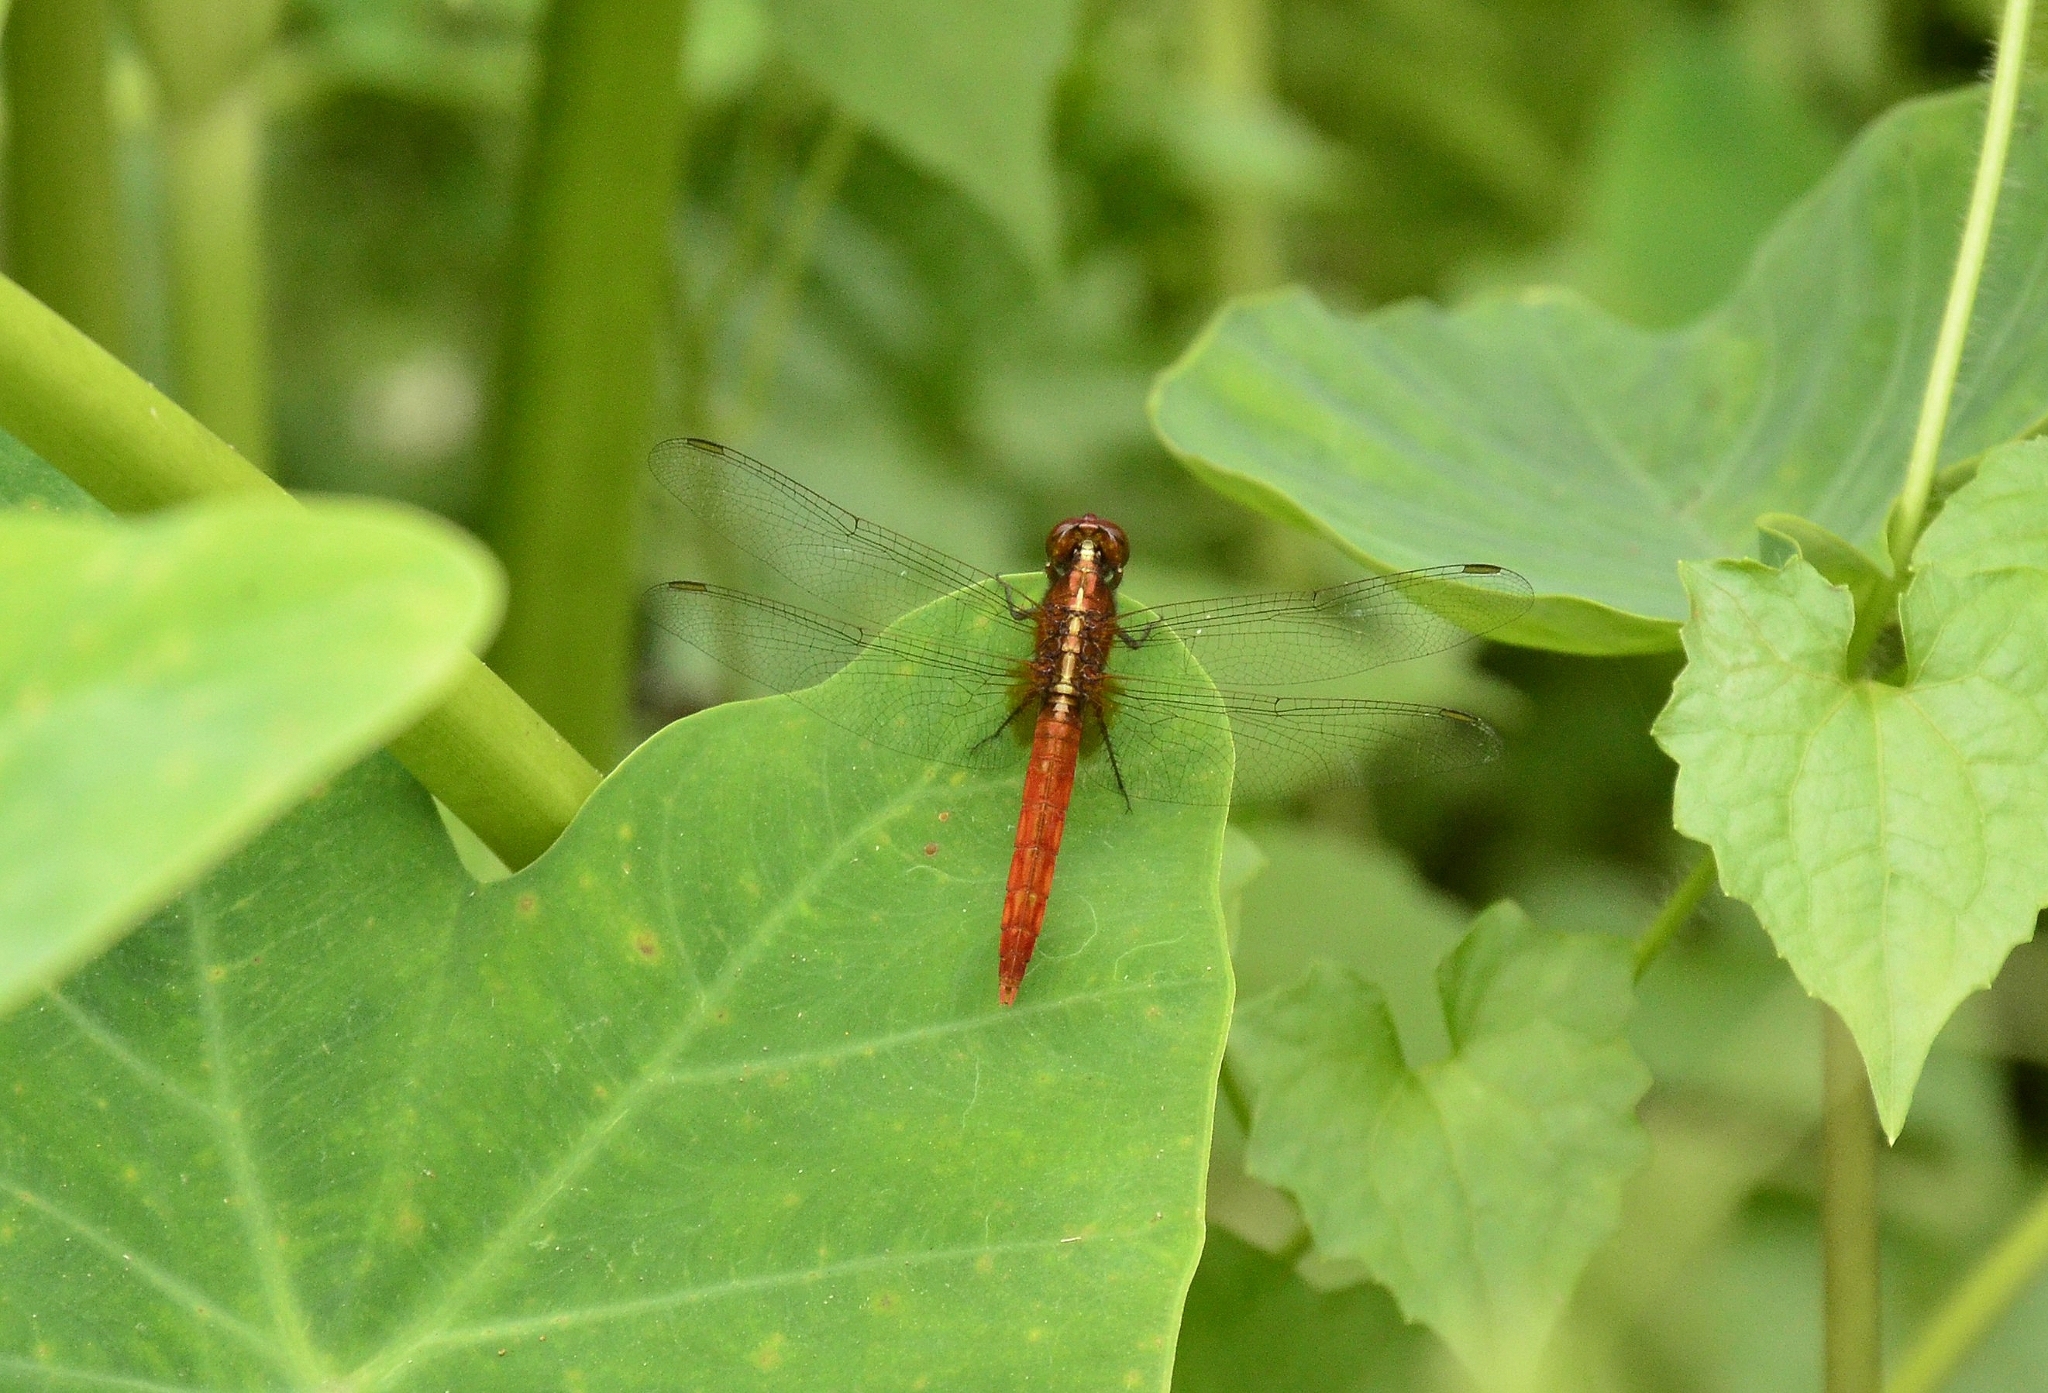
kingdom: Animalia
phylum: Arthropoda
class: Insecta
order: Odonata
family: Libellulidae
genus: Rhodothemis
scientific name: Rhodothemis rufa
